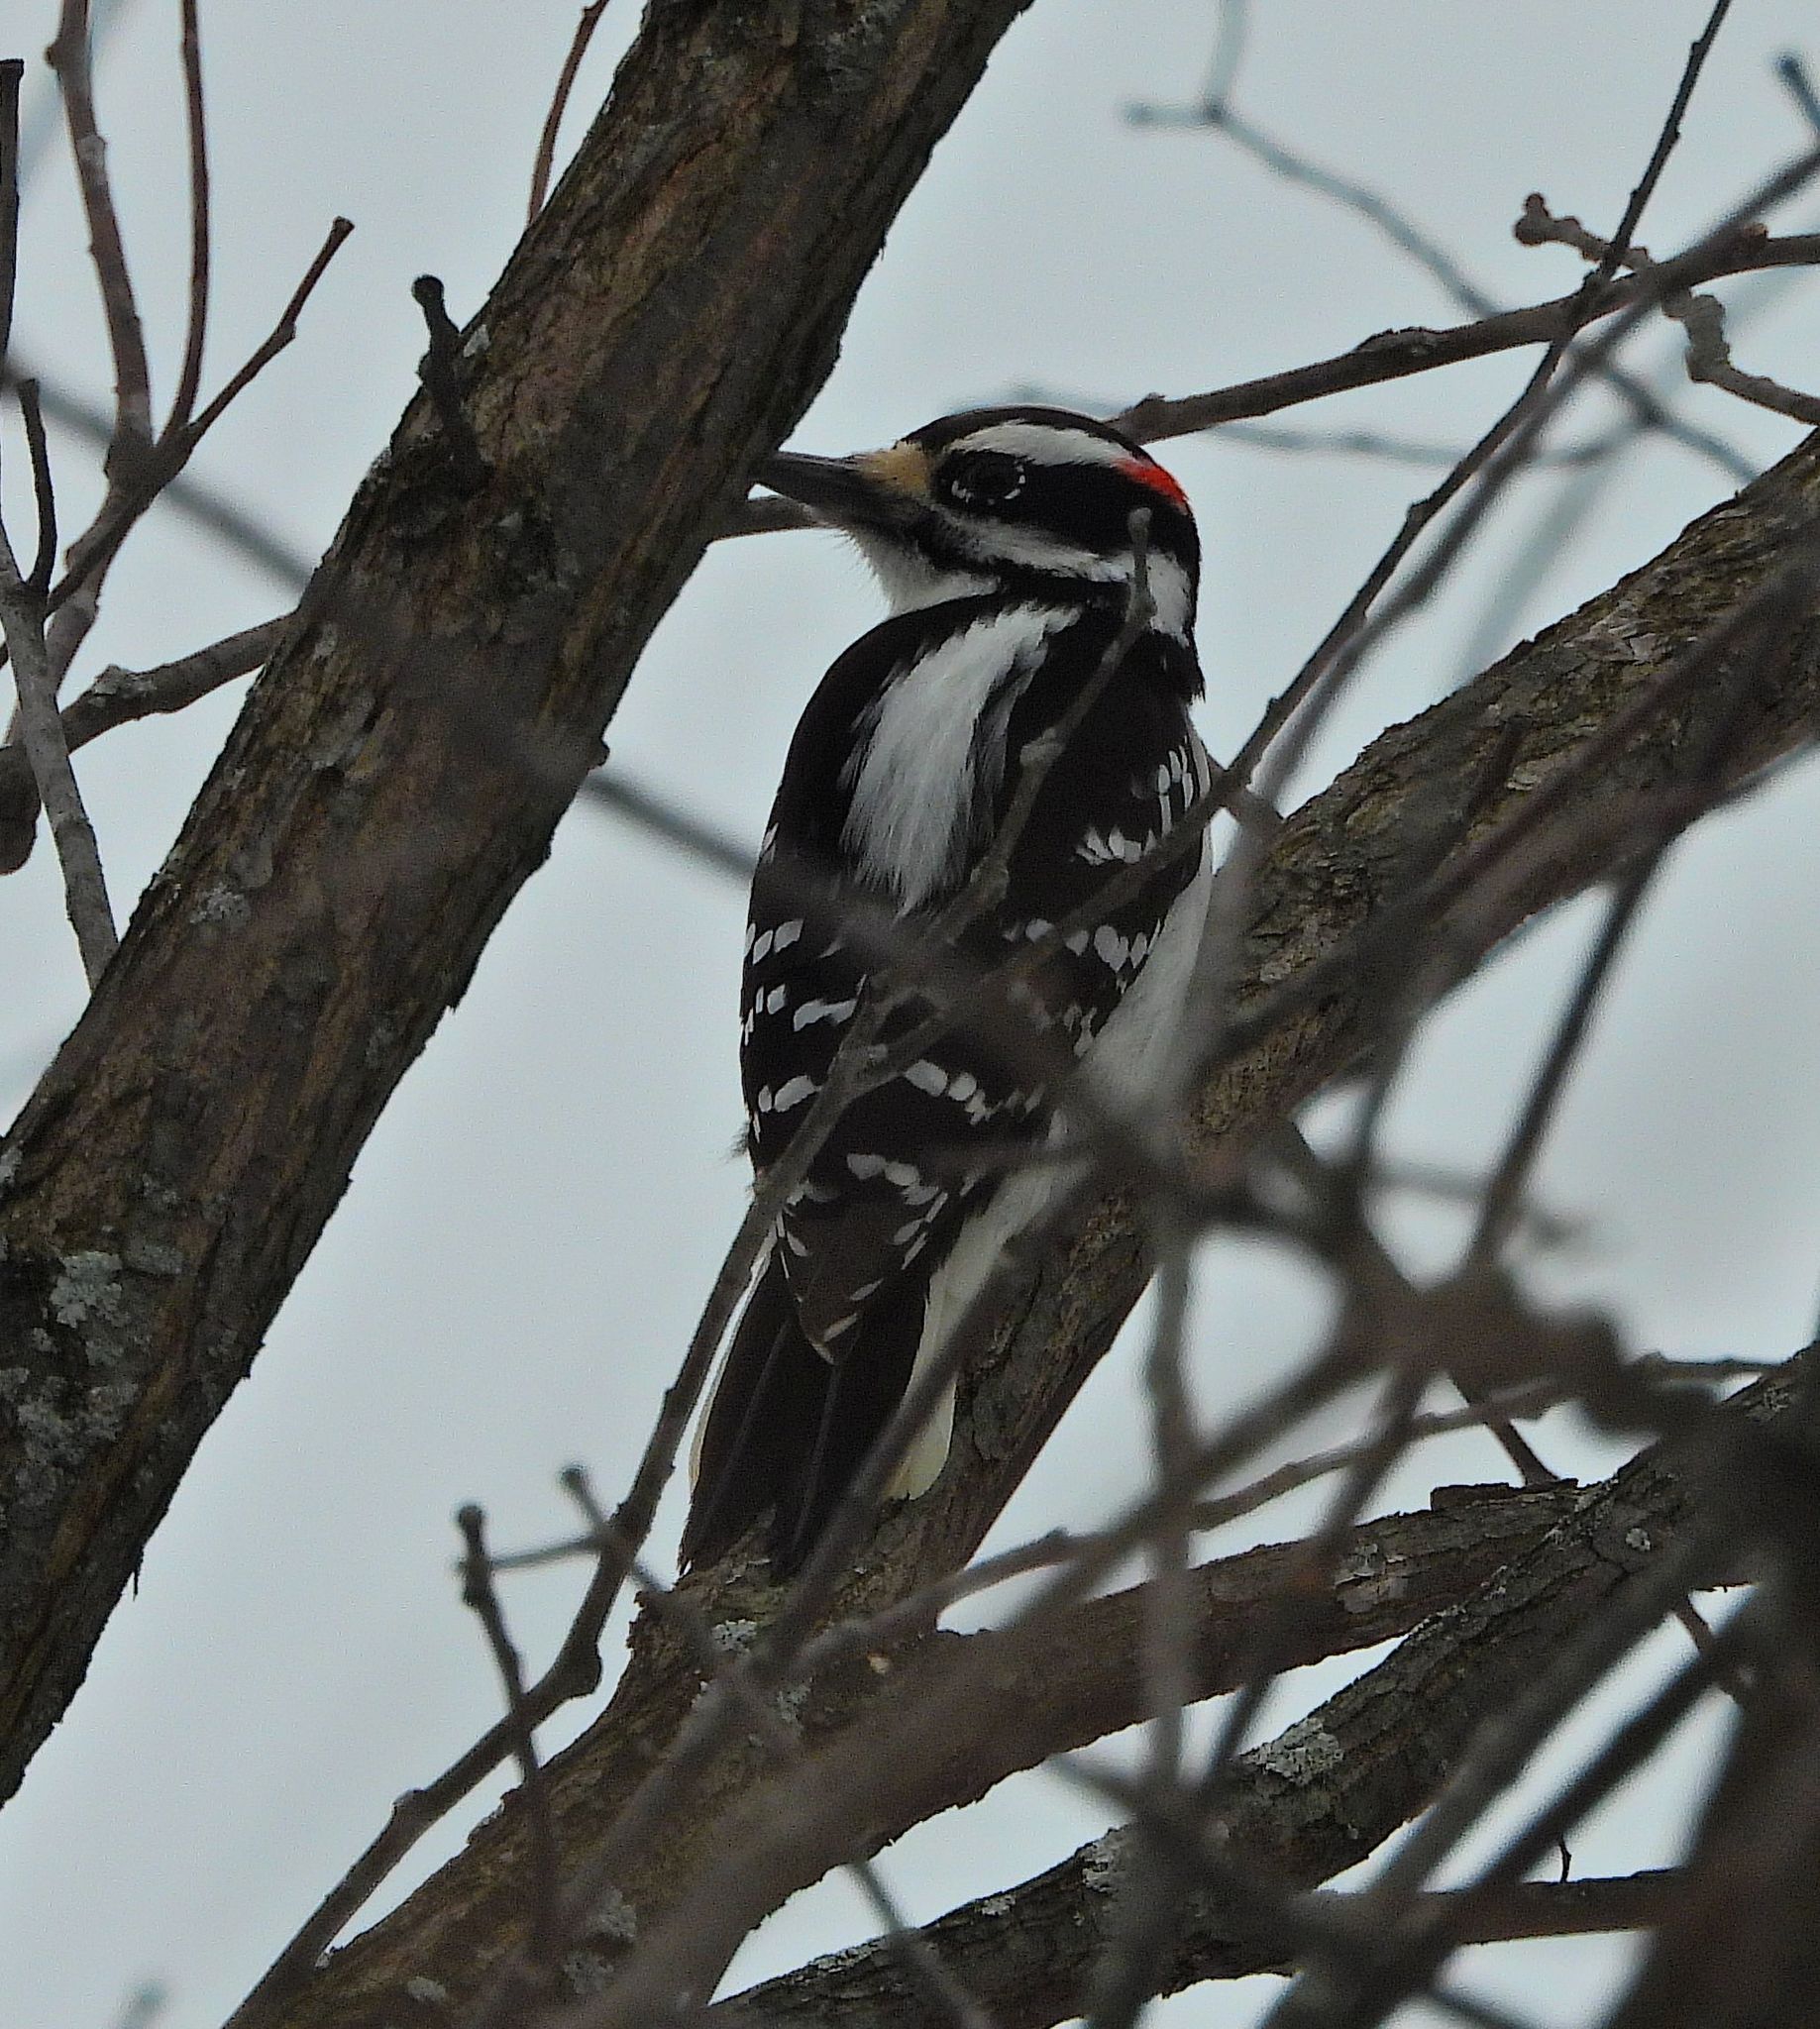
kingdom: Animalia
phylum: Chordata
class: Aves
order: Piciformes
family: Picidae
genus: Leuconotopicus
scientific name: Leuconotopicus villosus
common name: Hairy woodpecker
